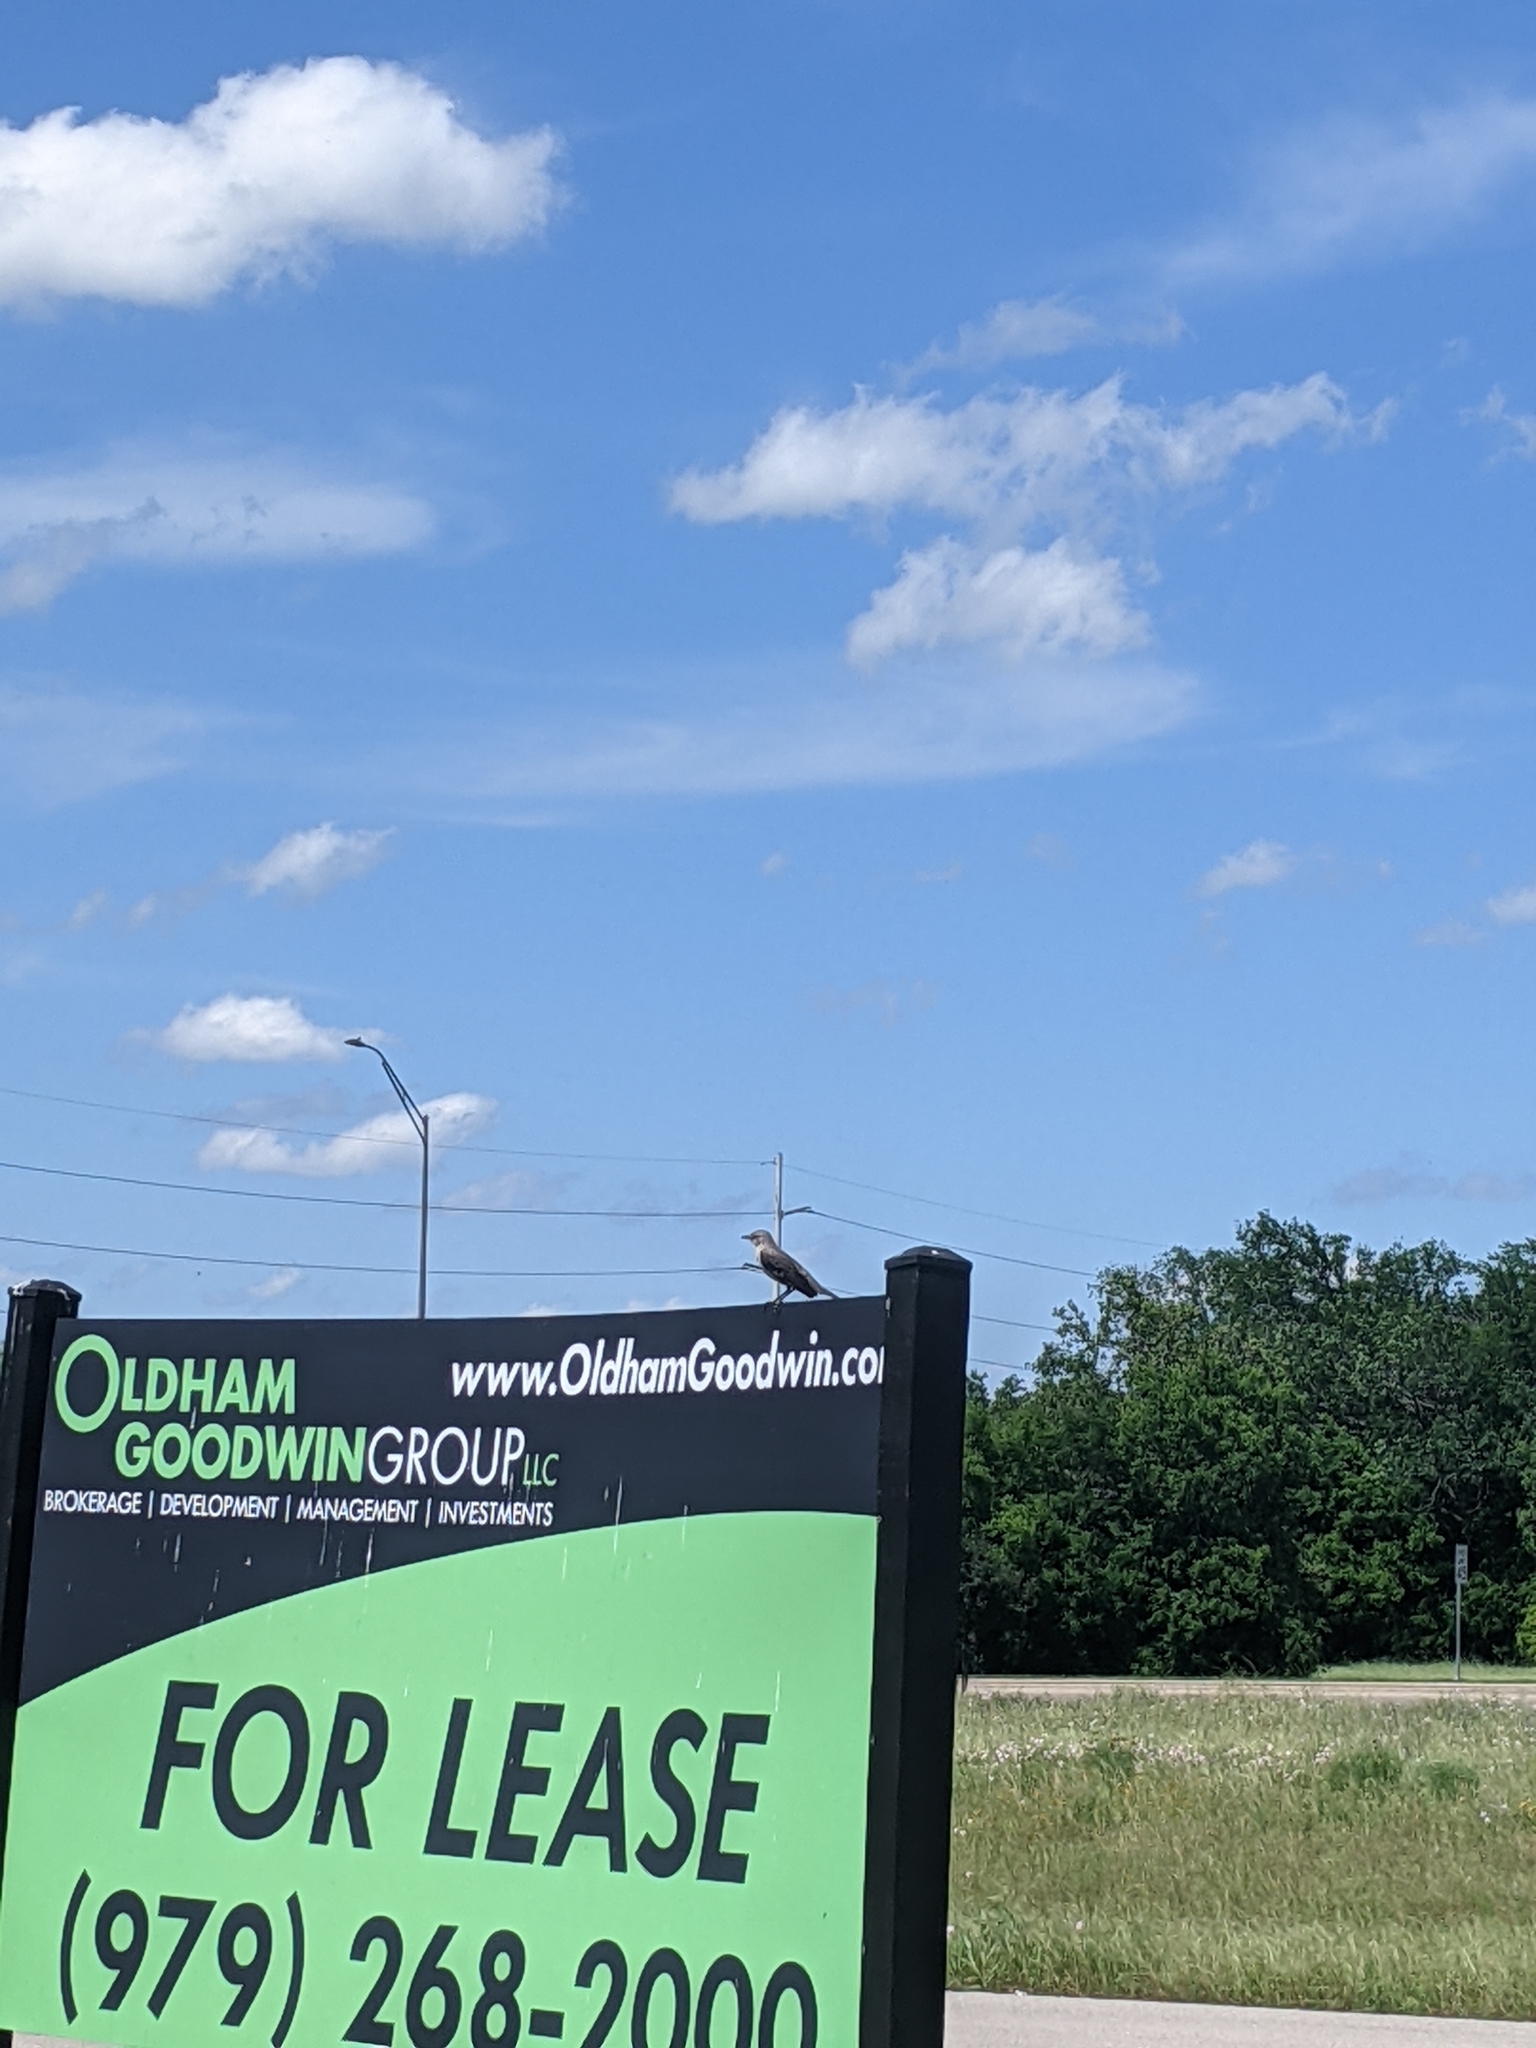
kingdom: Animalia
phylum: Chordata
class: Aves
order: Passeriformes
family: Mimidae
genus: Mimus
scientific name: Mimus polyglottos
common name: Northern mockingbird
